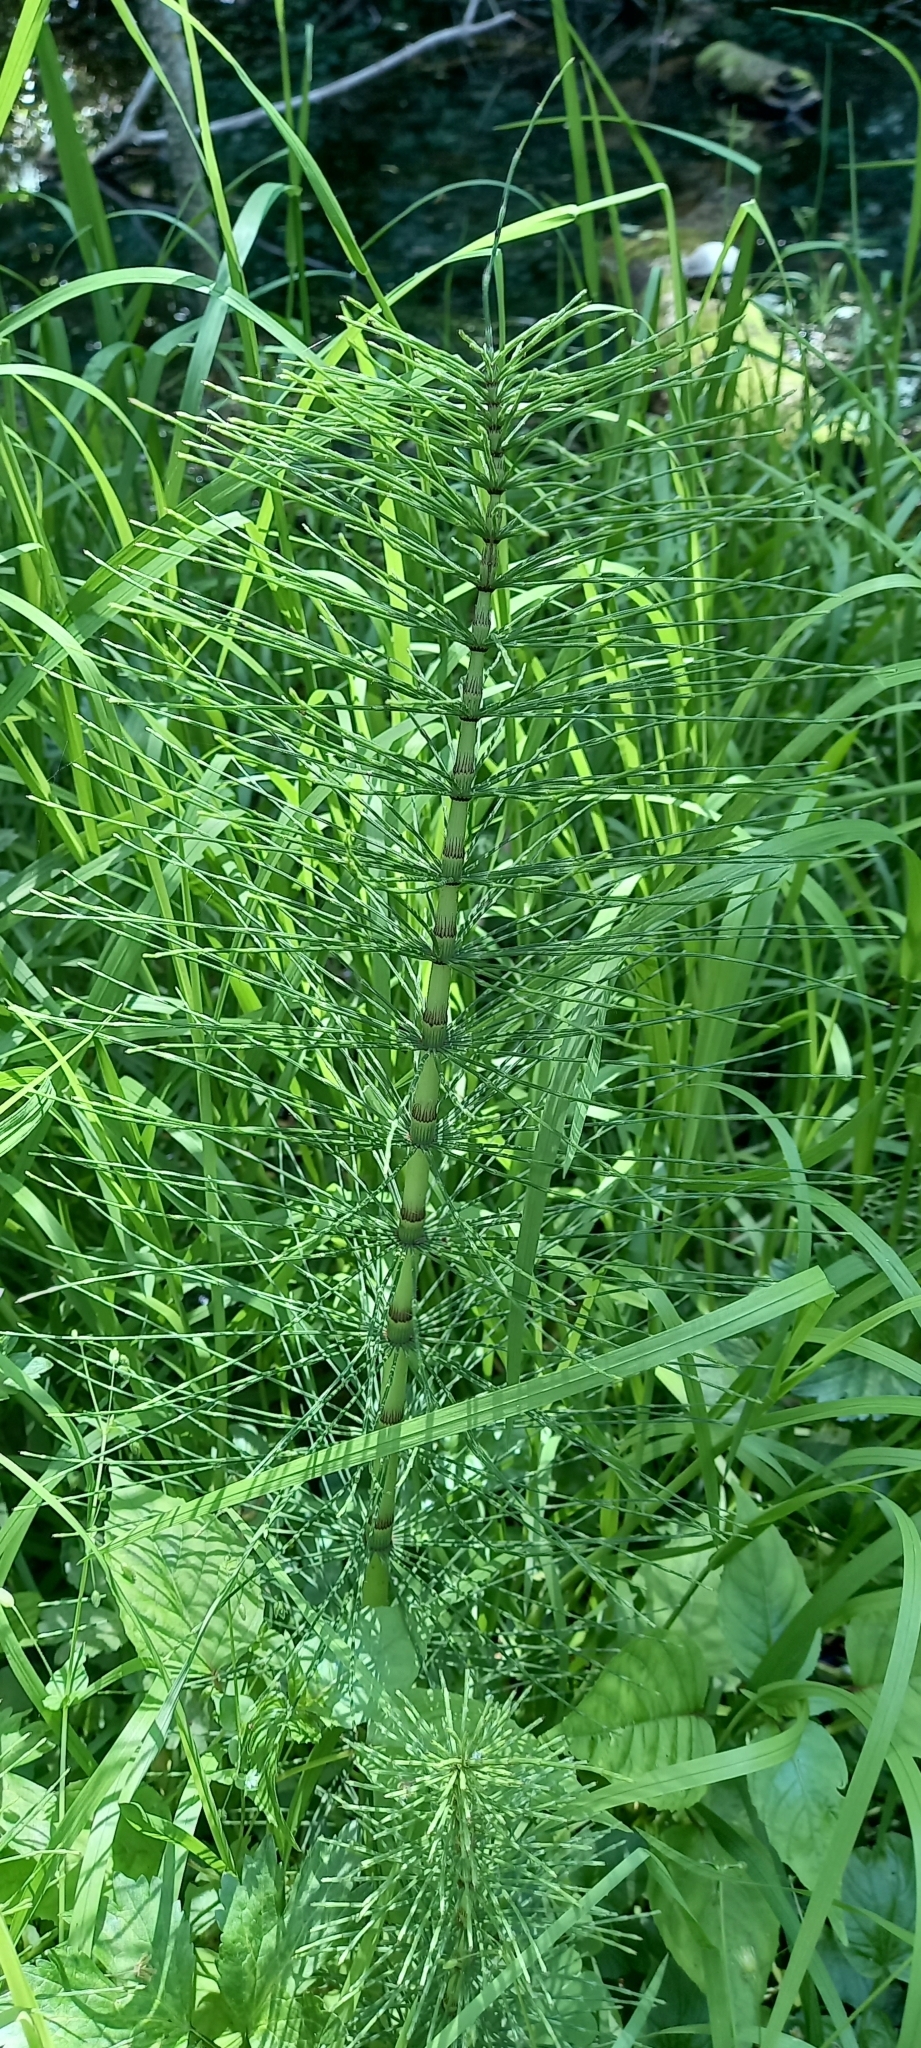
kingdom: Plantae
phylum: Tracheophyta
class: Polypodiopsida
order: Equisetales
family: Equisetaceae
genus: Equisetum
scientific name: Equisetum telmateia
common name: Great horsetail
